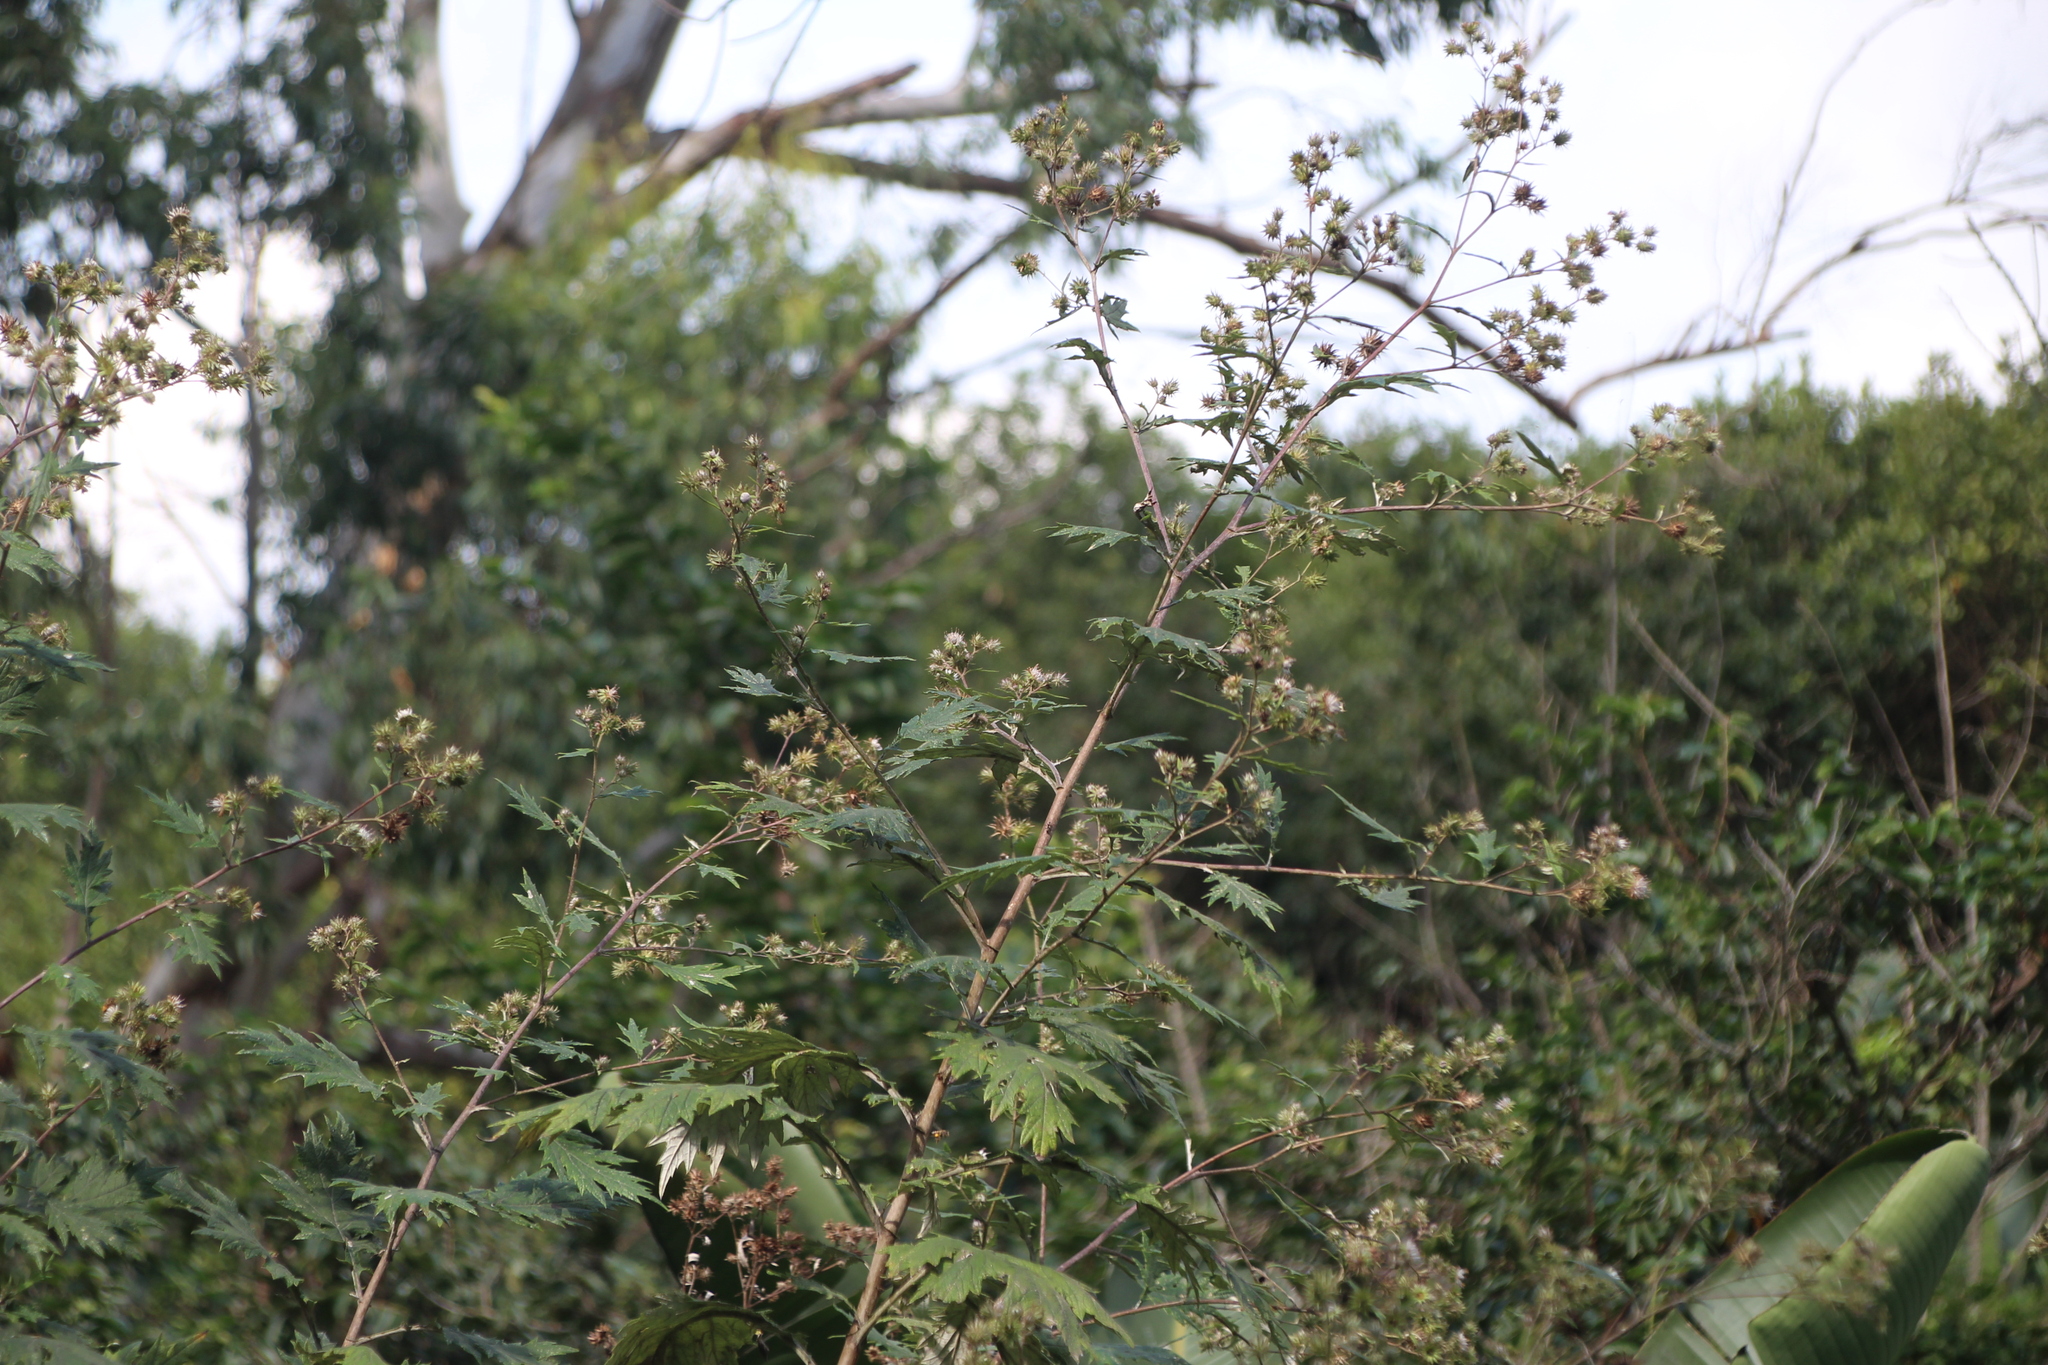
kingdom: Plantae
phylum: Tracheophyta
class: Magnoliopsida
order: Asterales
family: Asteraceae
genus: Berkheya
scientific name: Berkheya bipinnatifida
